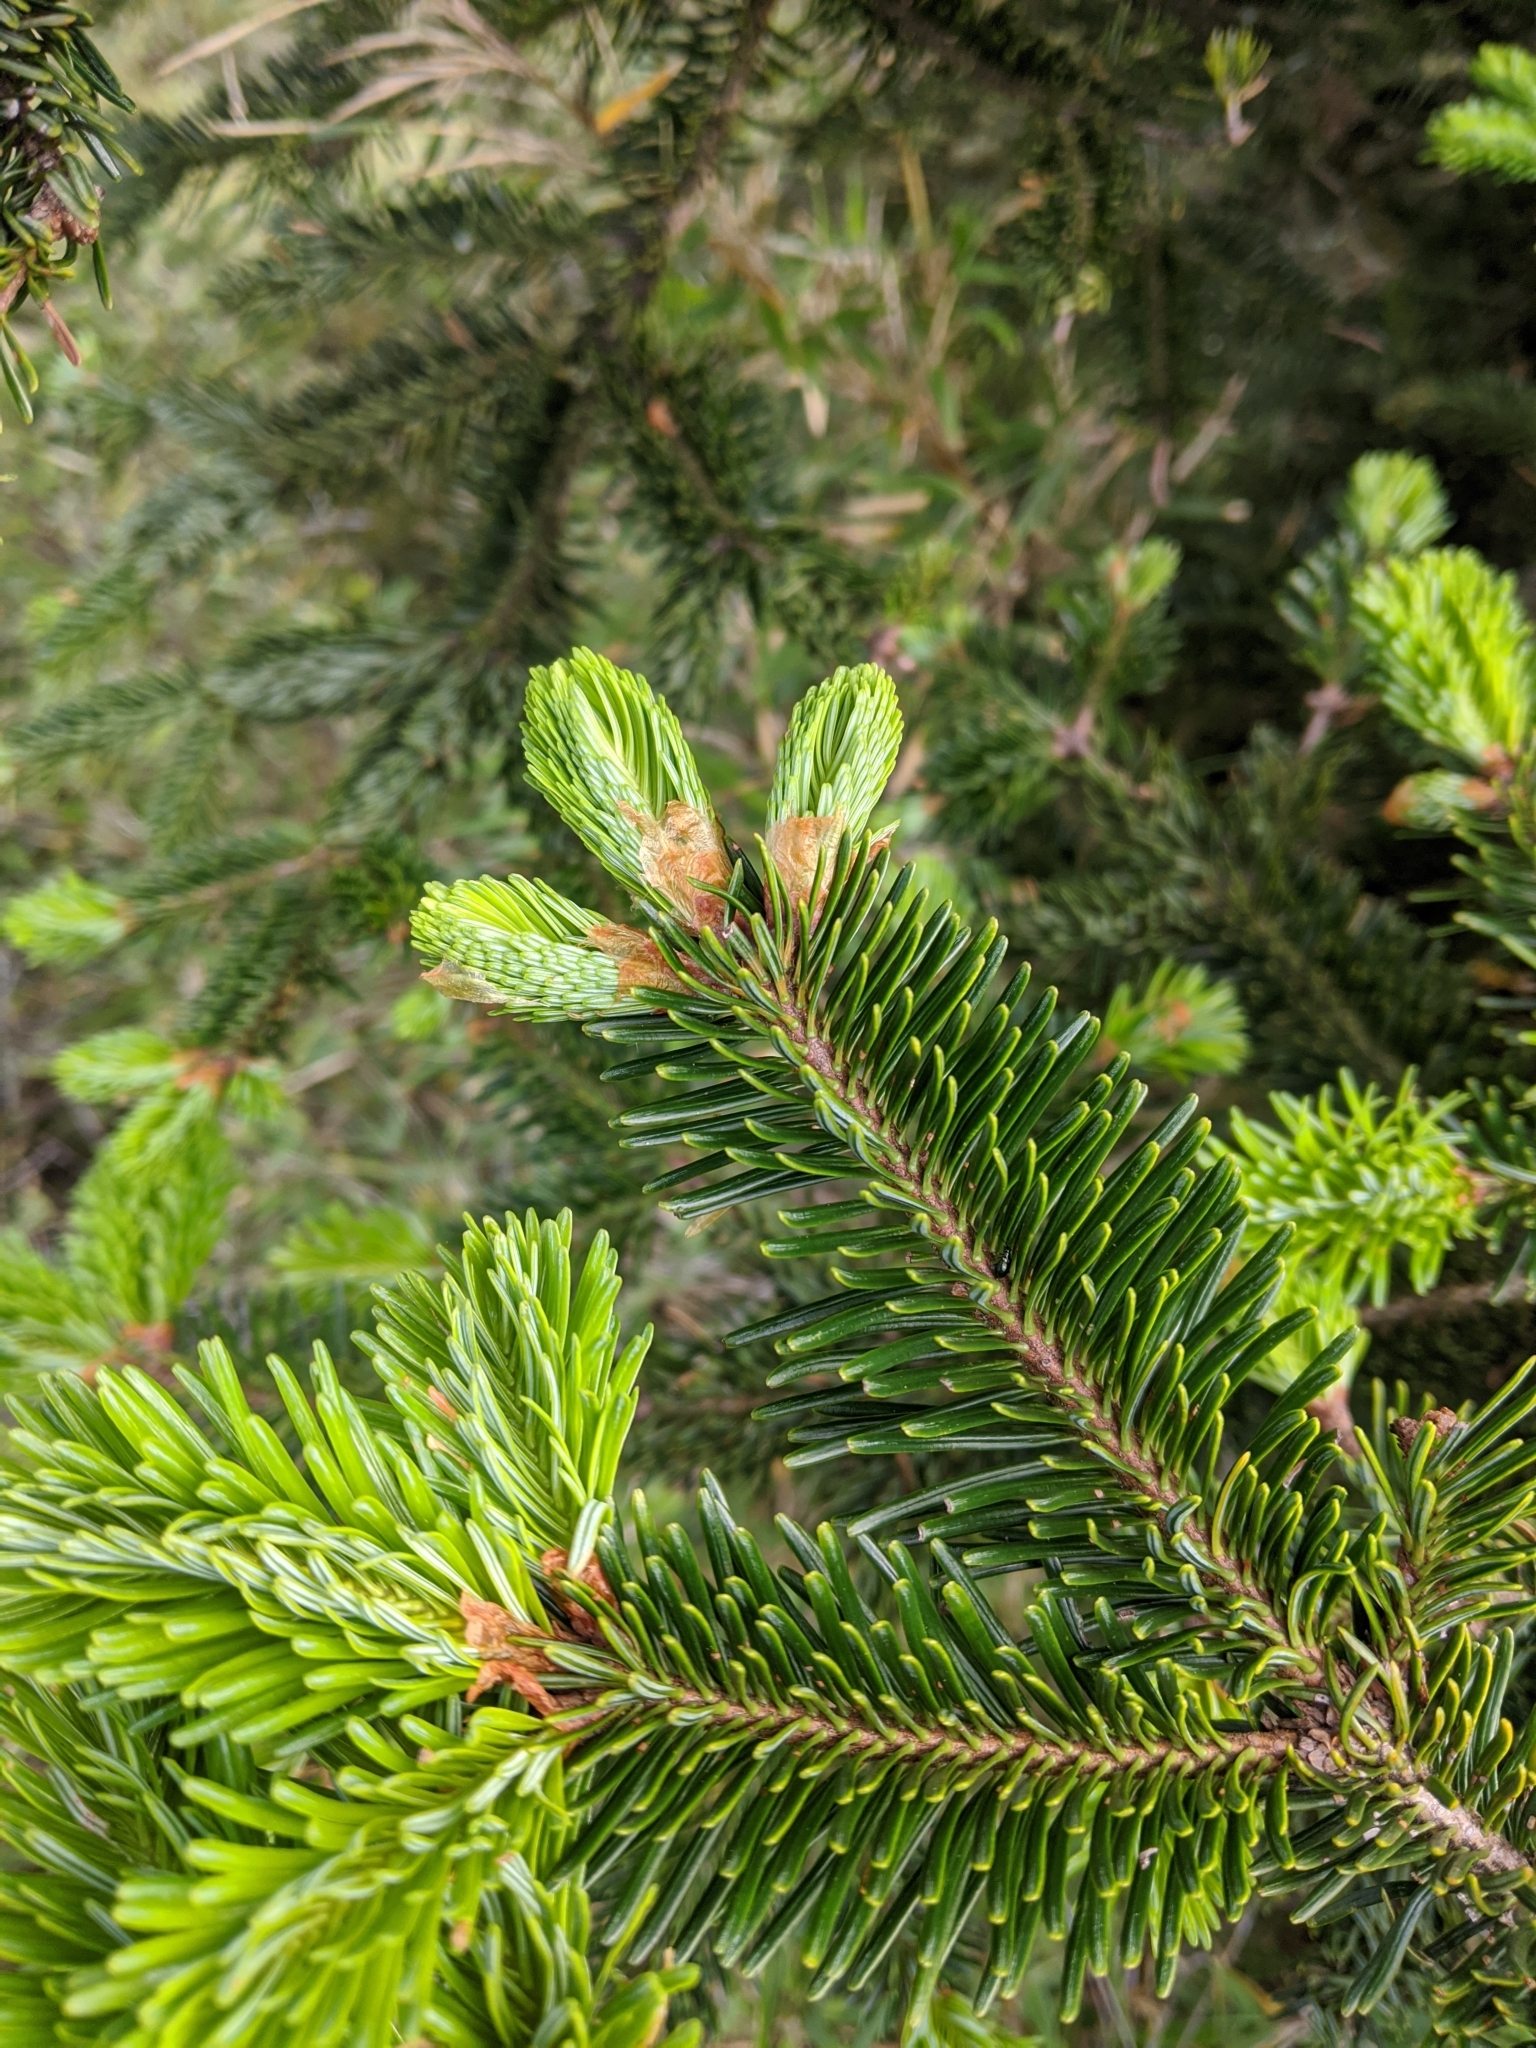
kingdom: Plantae
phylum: Tracheophyta
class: Pinopsida
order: Pinales
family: Pinaceae
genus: Abies
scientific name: Abies kawakamii
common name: Taiwan fir
